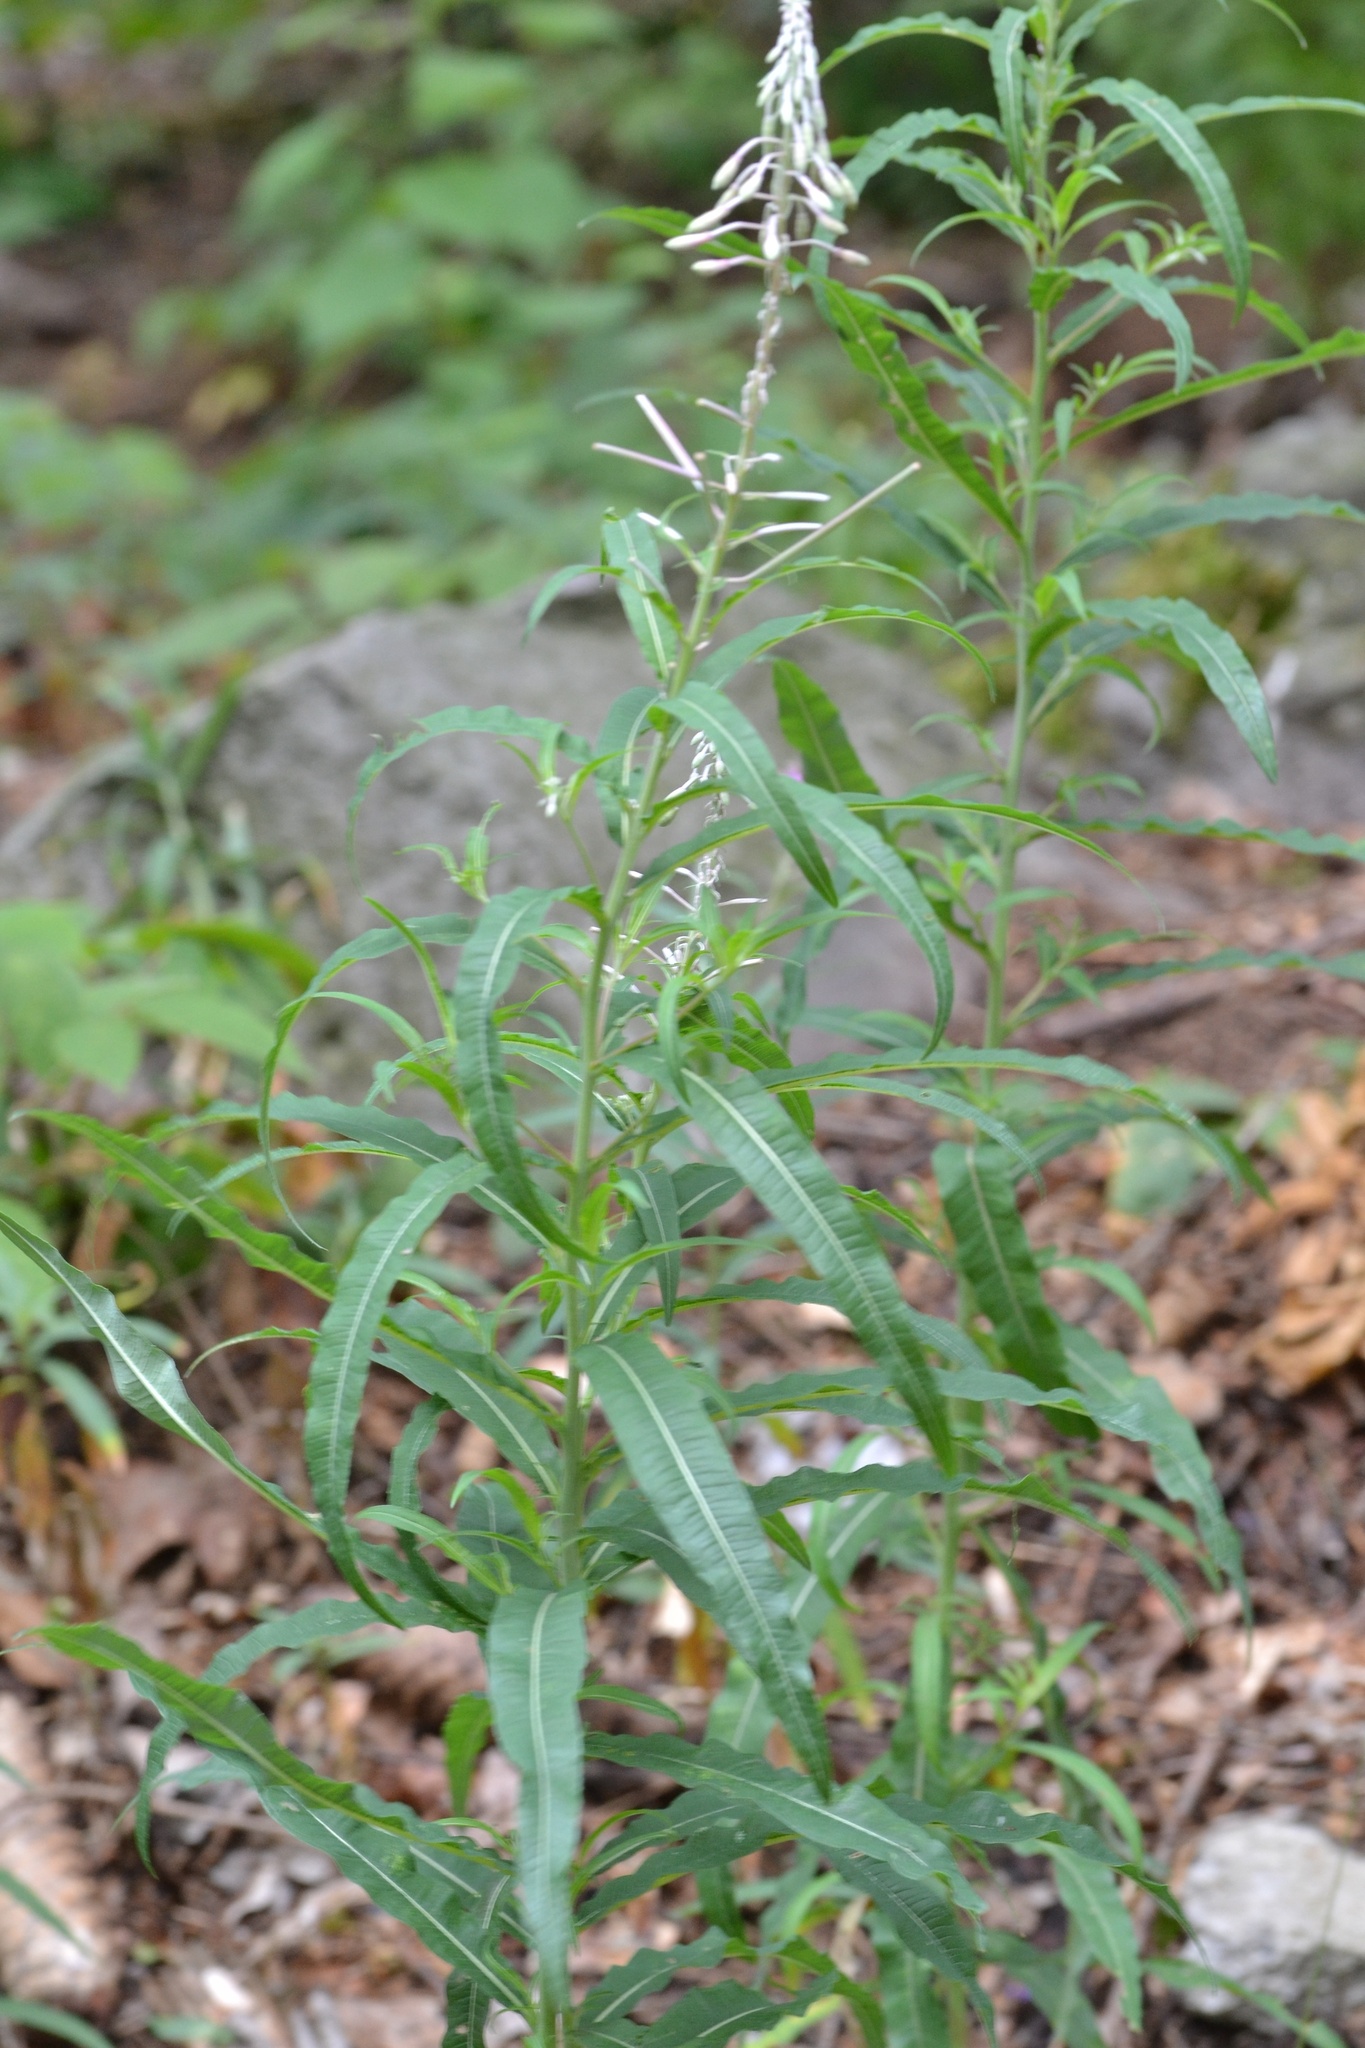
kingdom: Plantae
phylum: Tracheophyta
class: Magnoliopsida
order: Myrtales
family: Onagraceae
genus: Chamaenerion
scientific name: Chamaenerion angustifolium
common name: Fireweed
